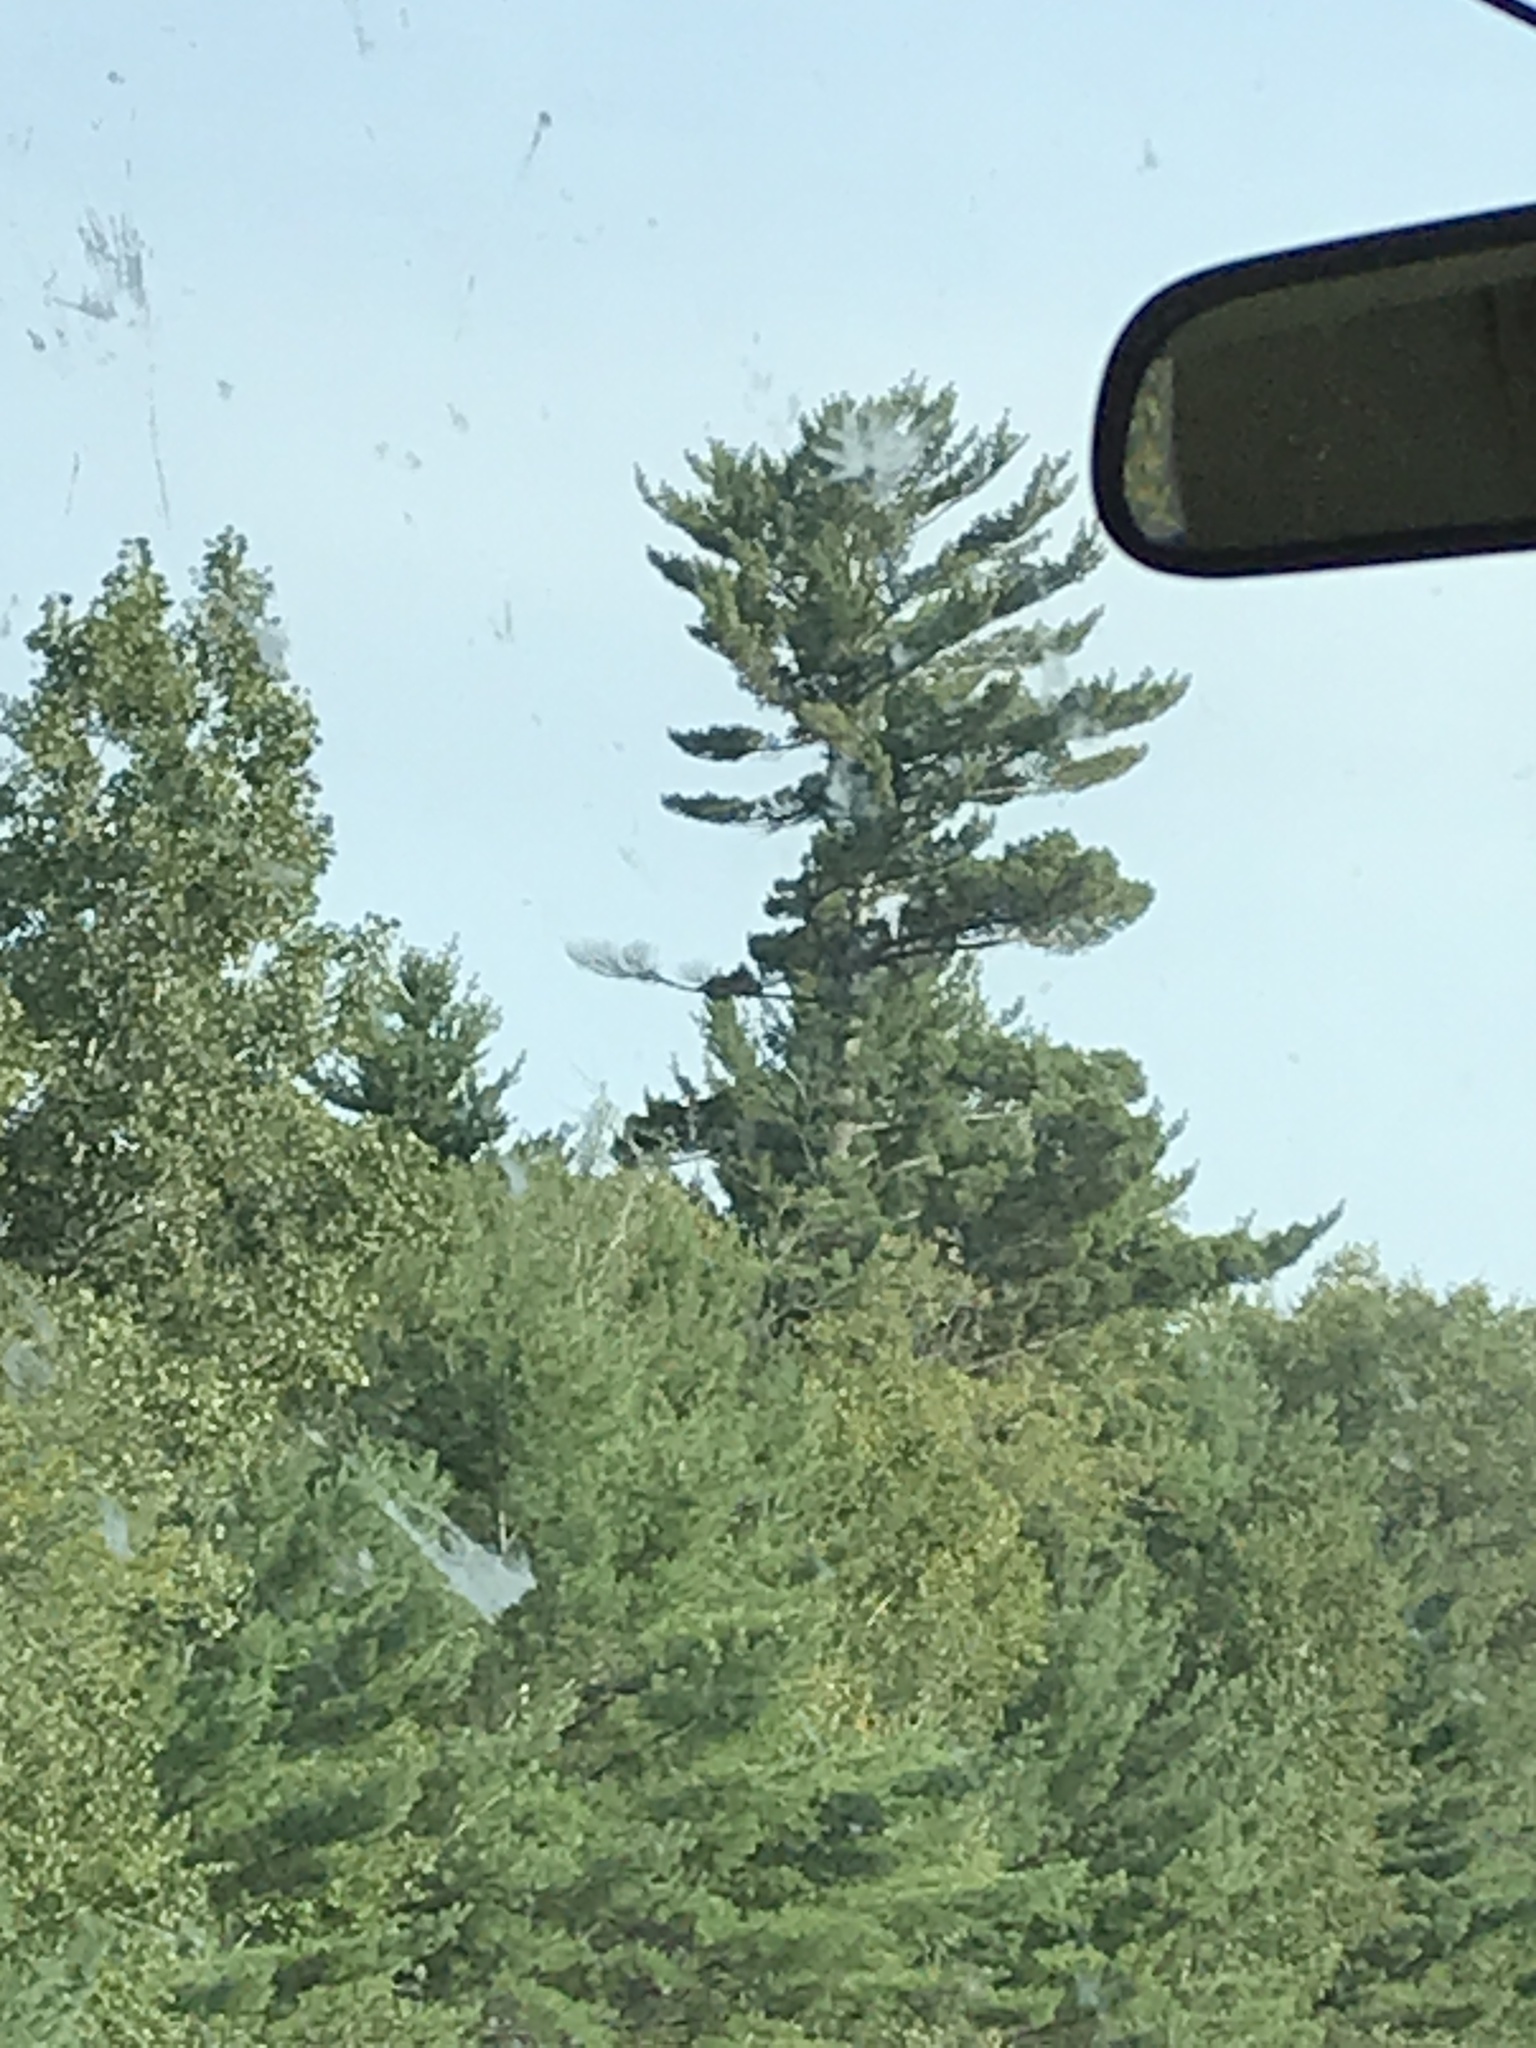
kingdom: Plantae
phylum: Tracheophyta
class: Pinopsida
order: Pinales
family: Pinaceae
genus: Pinus
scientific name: Pinus strobus
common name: Weymouth pine
